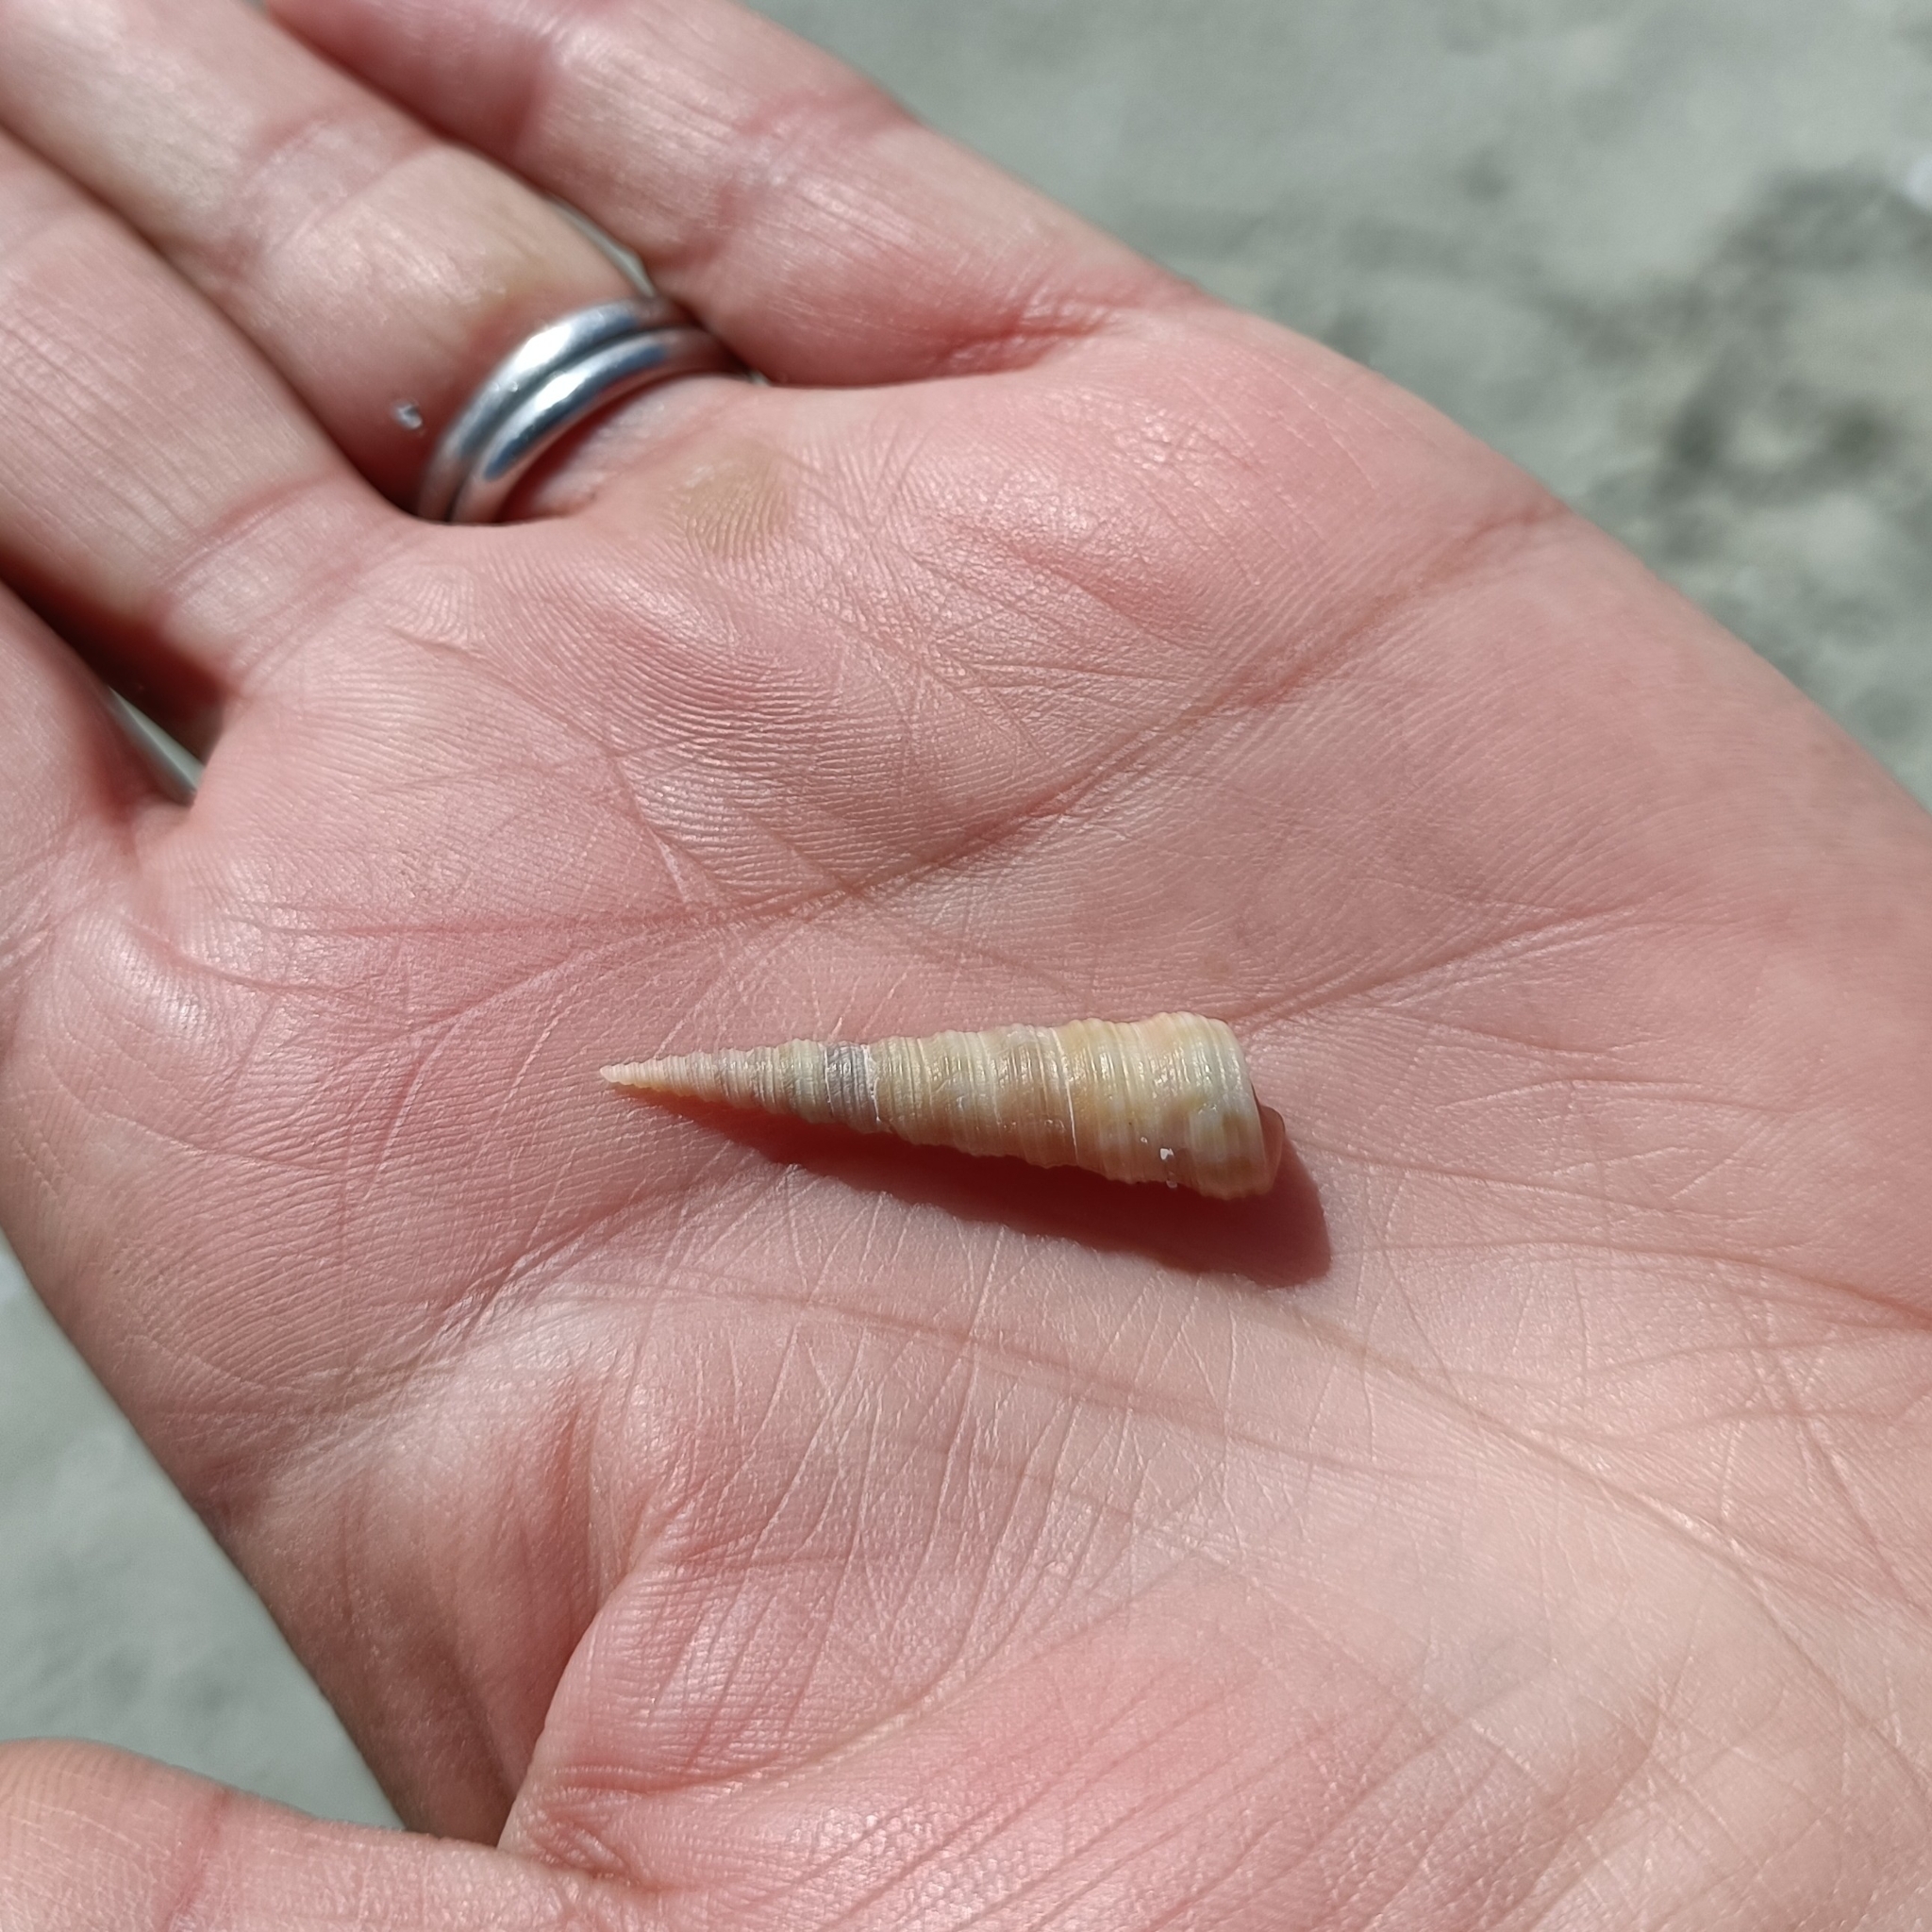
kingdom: Animalia
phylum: Mollusca
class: Gastropoda
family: Turritellidae
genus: Turritellinella
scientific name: Turritellinella tricarinata
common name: Auger shell
